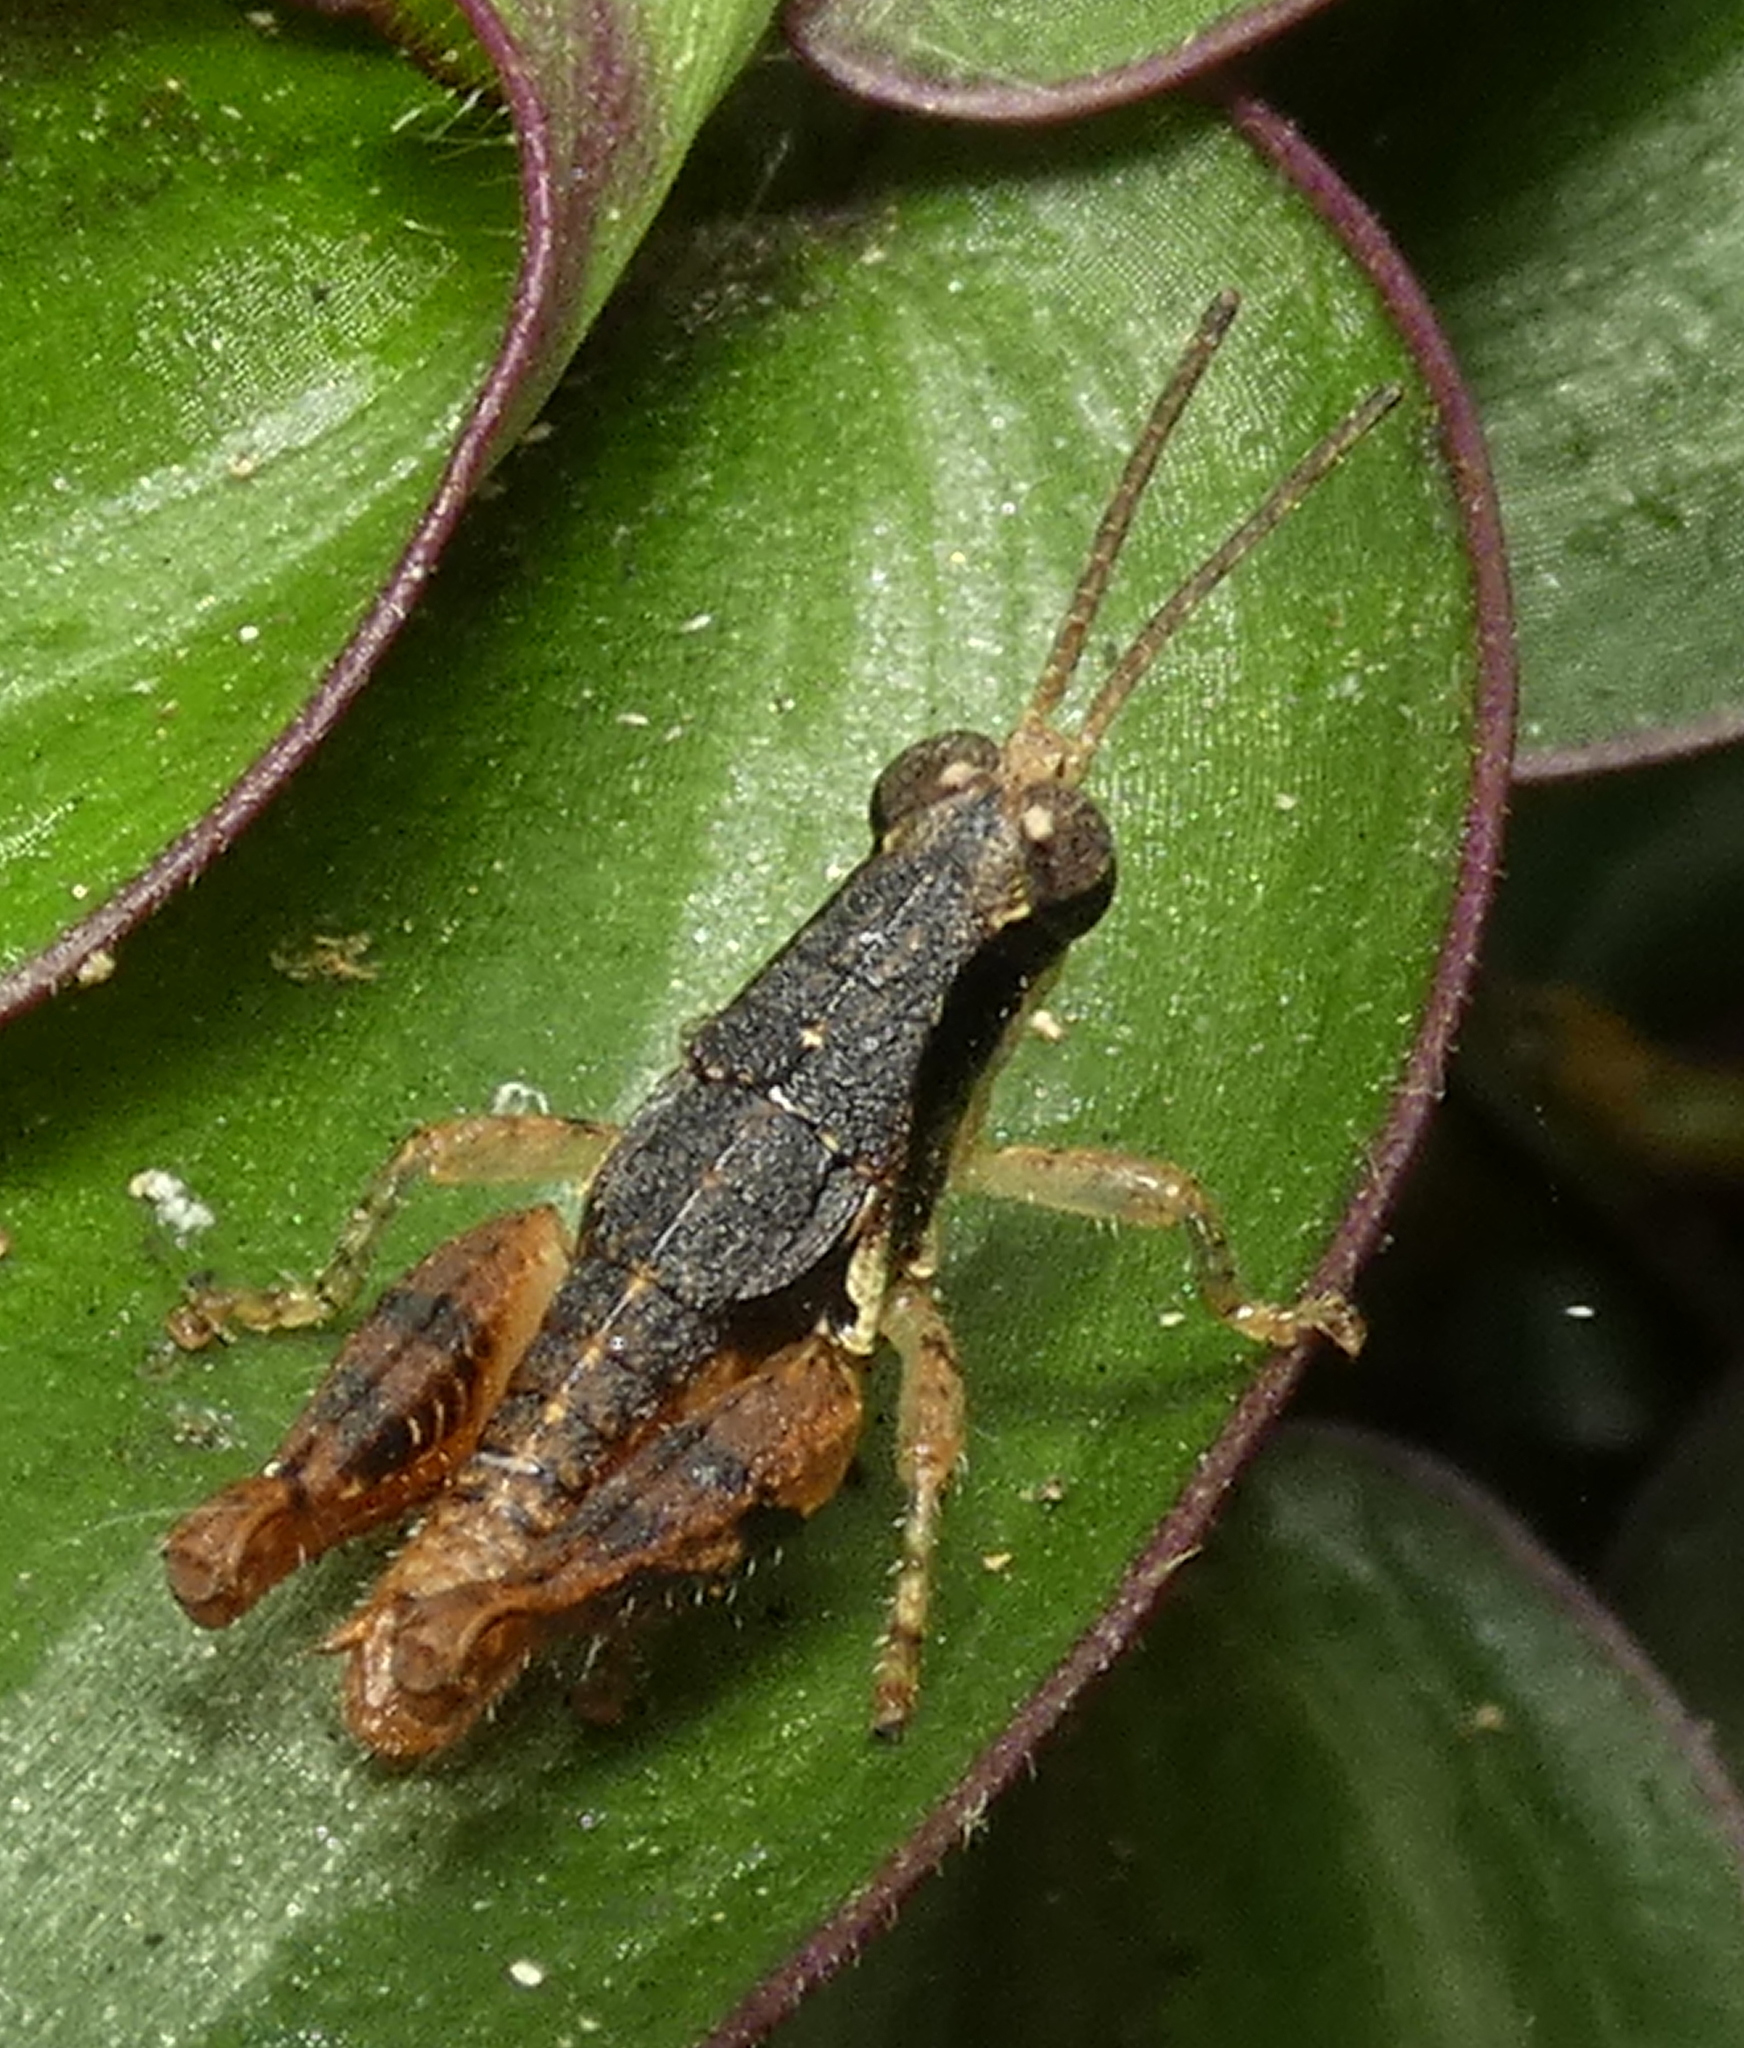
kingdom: Animalia
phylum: Arthropoda
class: Insecta
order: Orthoptera
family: Acrididae
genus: Eujivarus
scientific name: Eujivarus meridionalis
